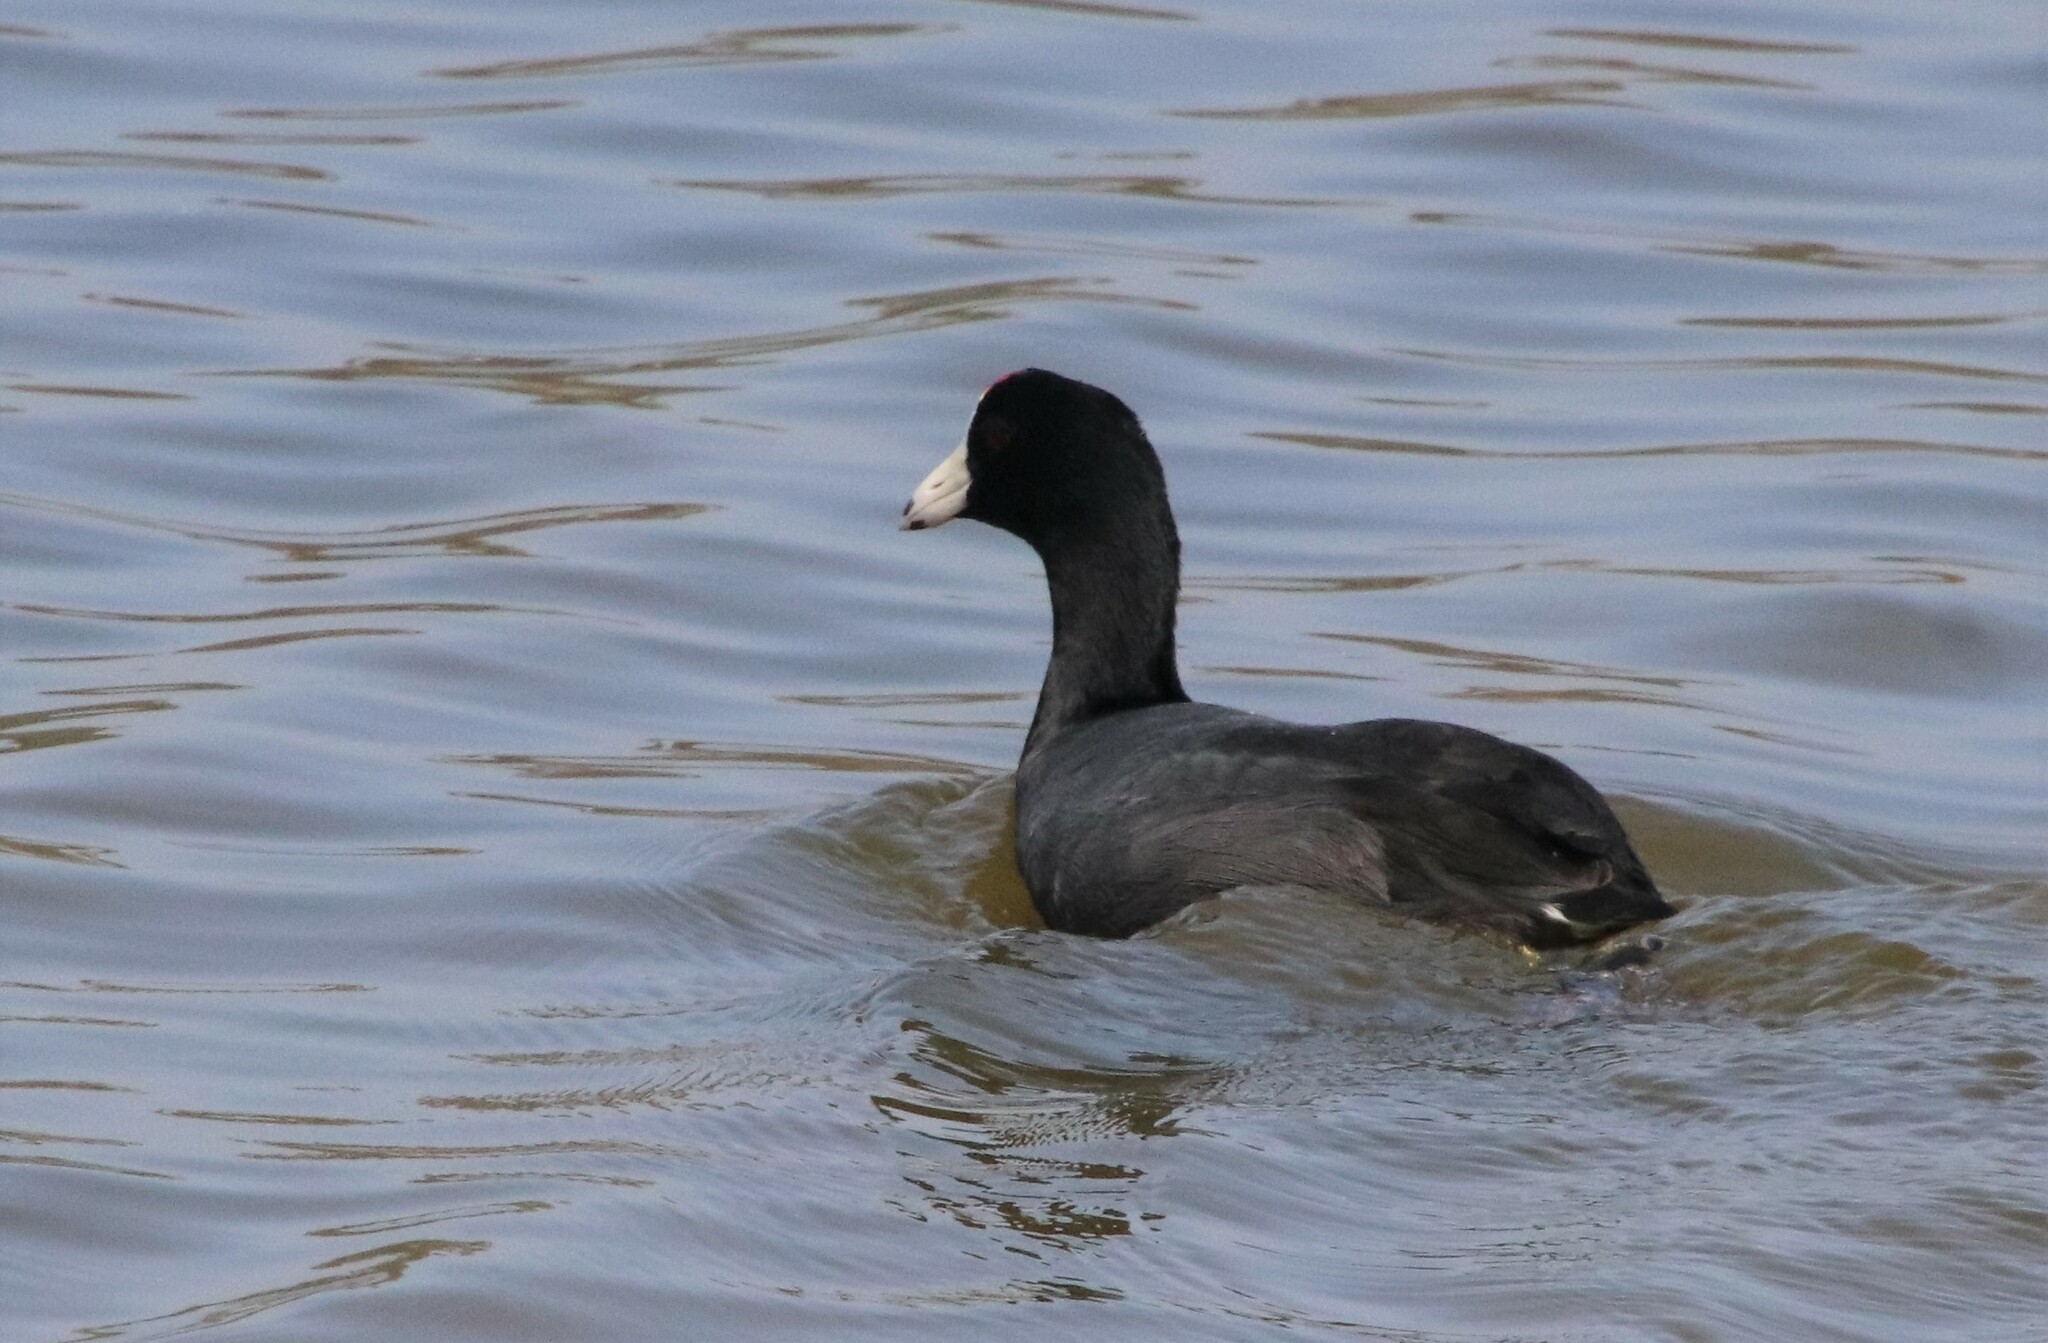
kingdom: Animalia
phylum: Chordata
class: Aves
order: Gruiformes
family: Rallidae
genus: Fulica
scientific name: Fulica americana
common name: American coot
